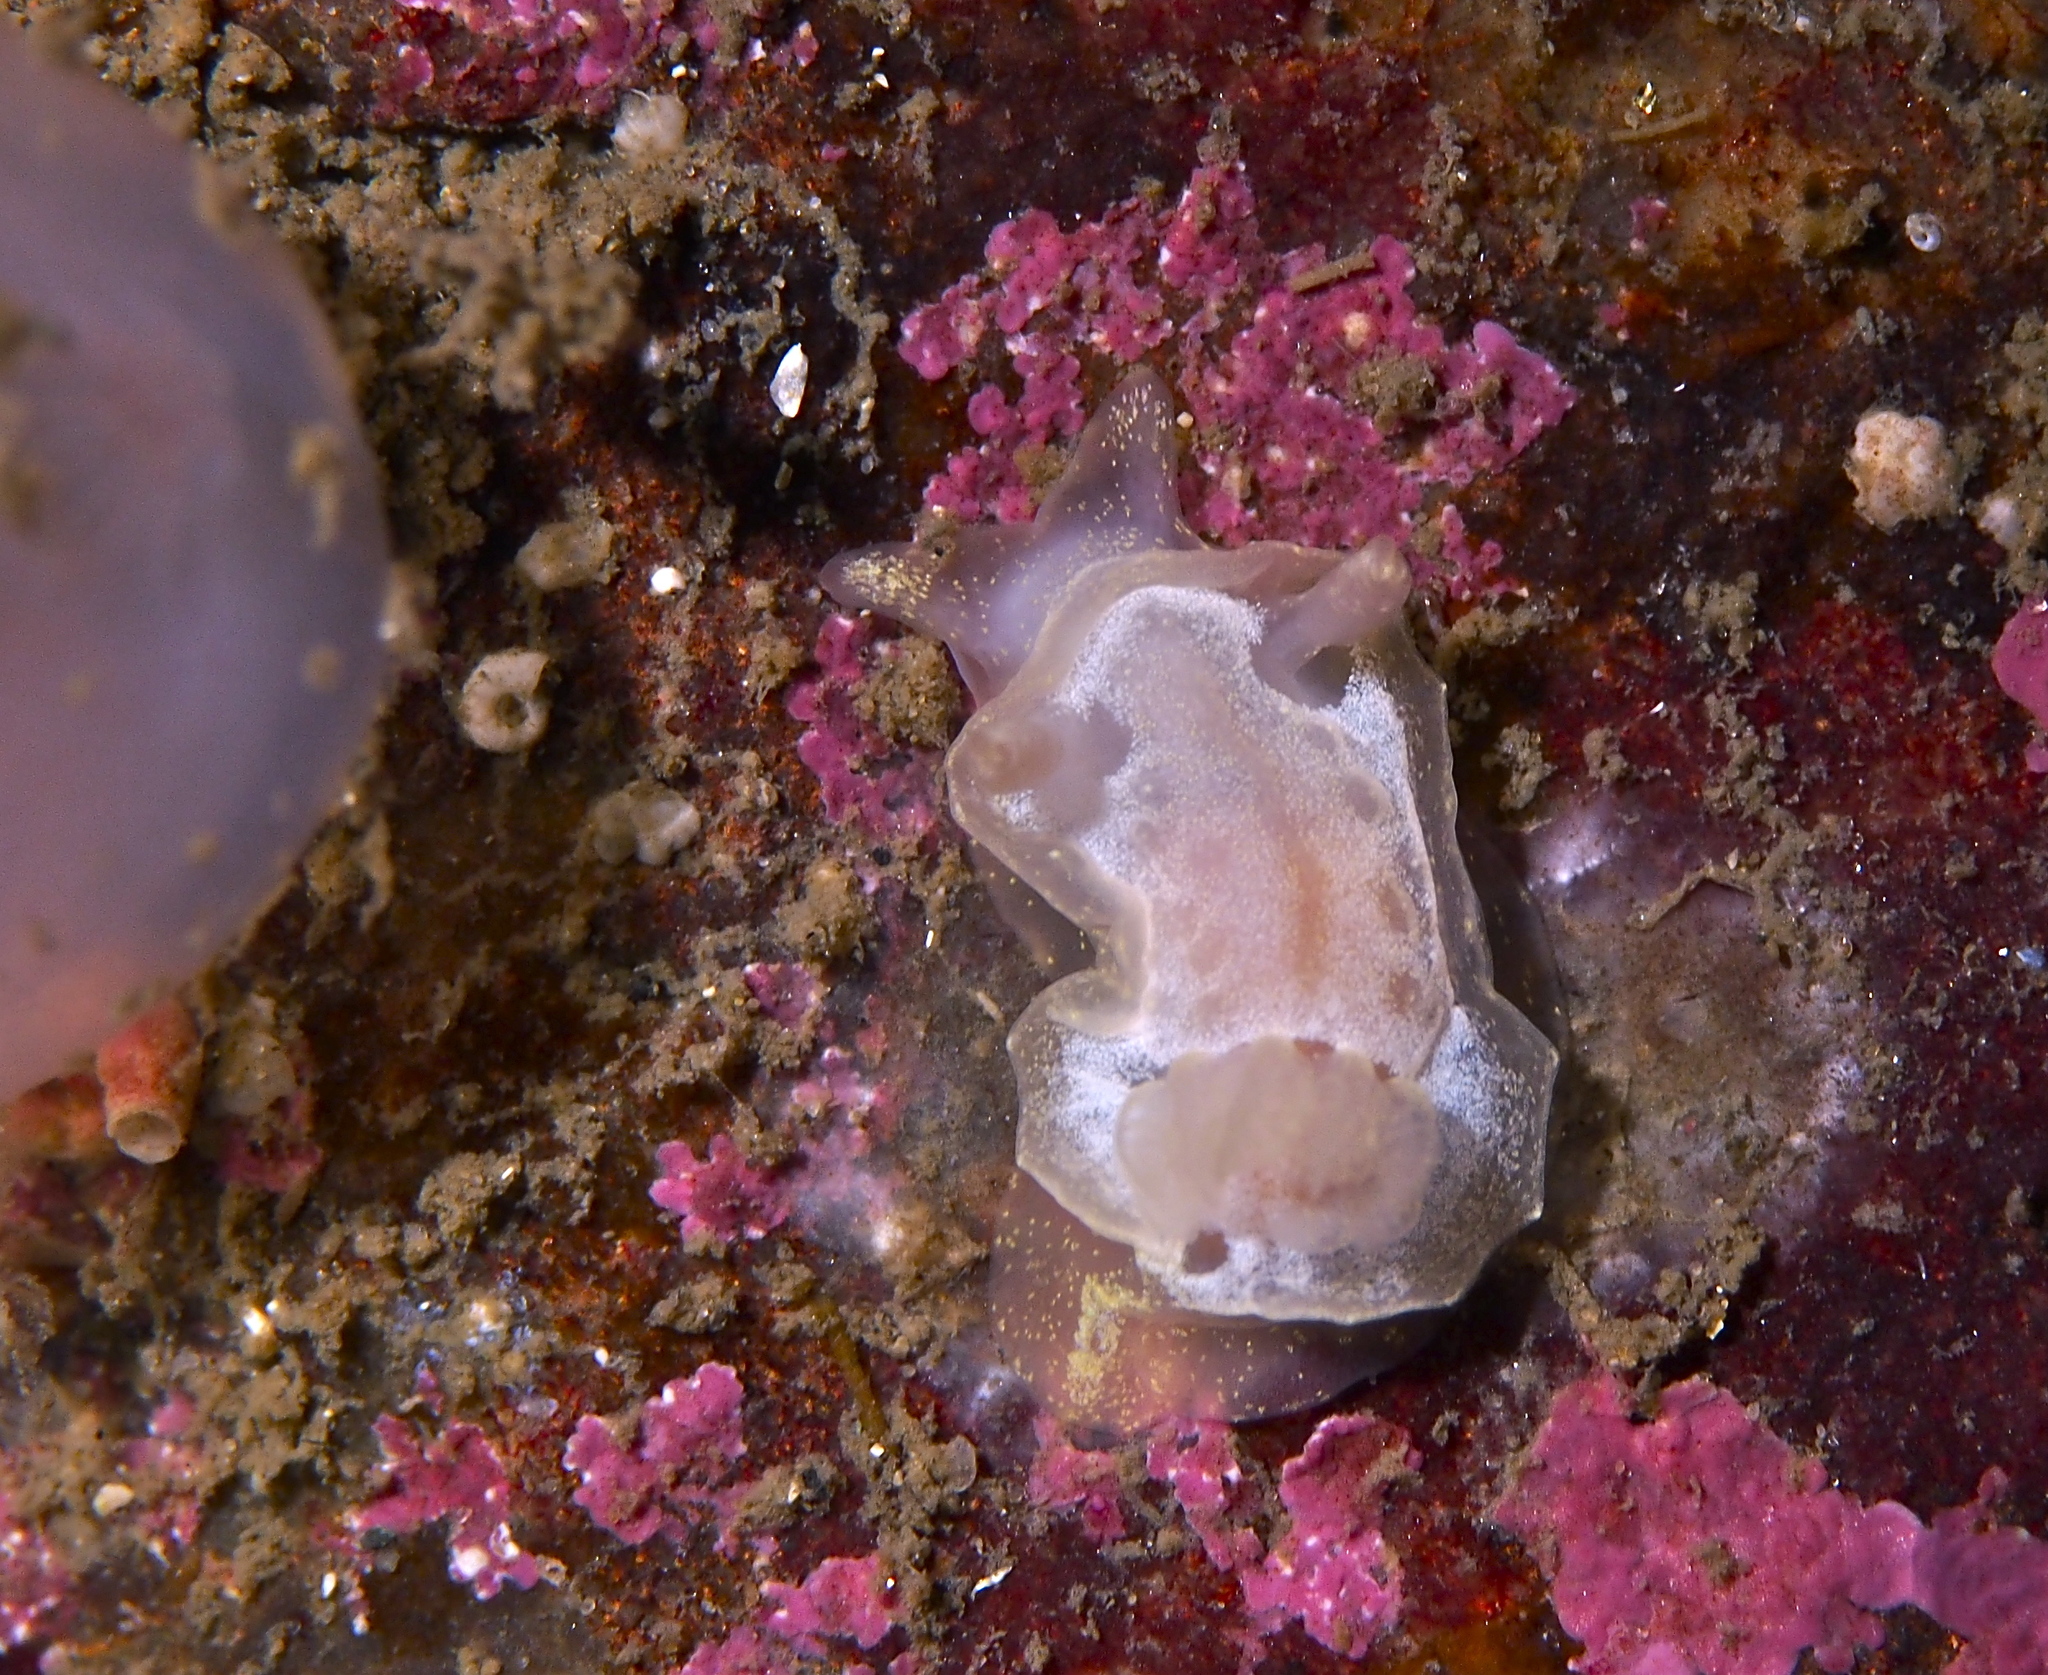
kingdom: Animalia
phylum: Mollusca
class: Gastropoda
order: Nudibranchia
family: Goniodorididae
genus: Okenia
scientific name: Okenia
